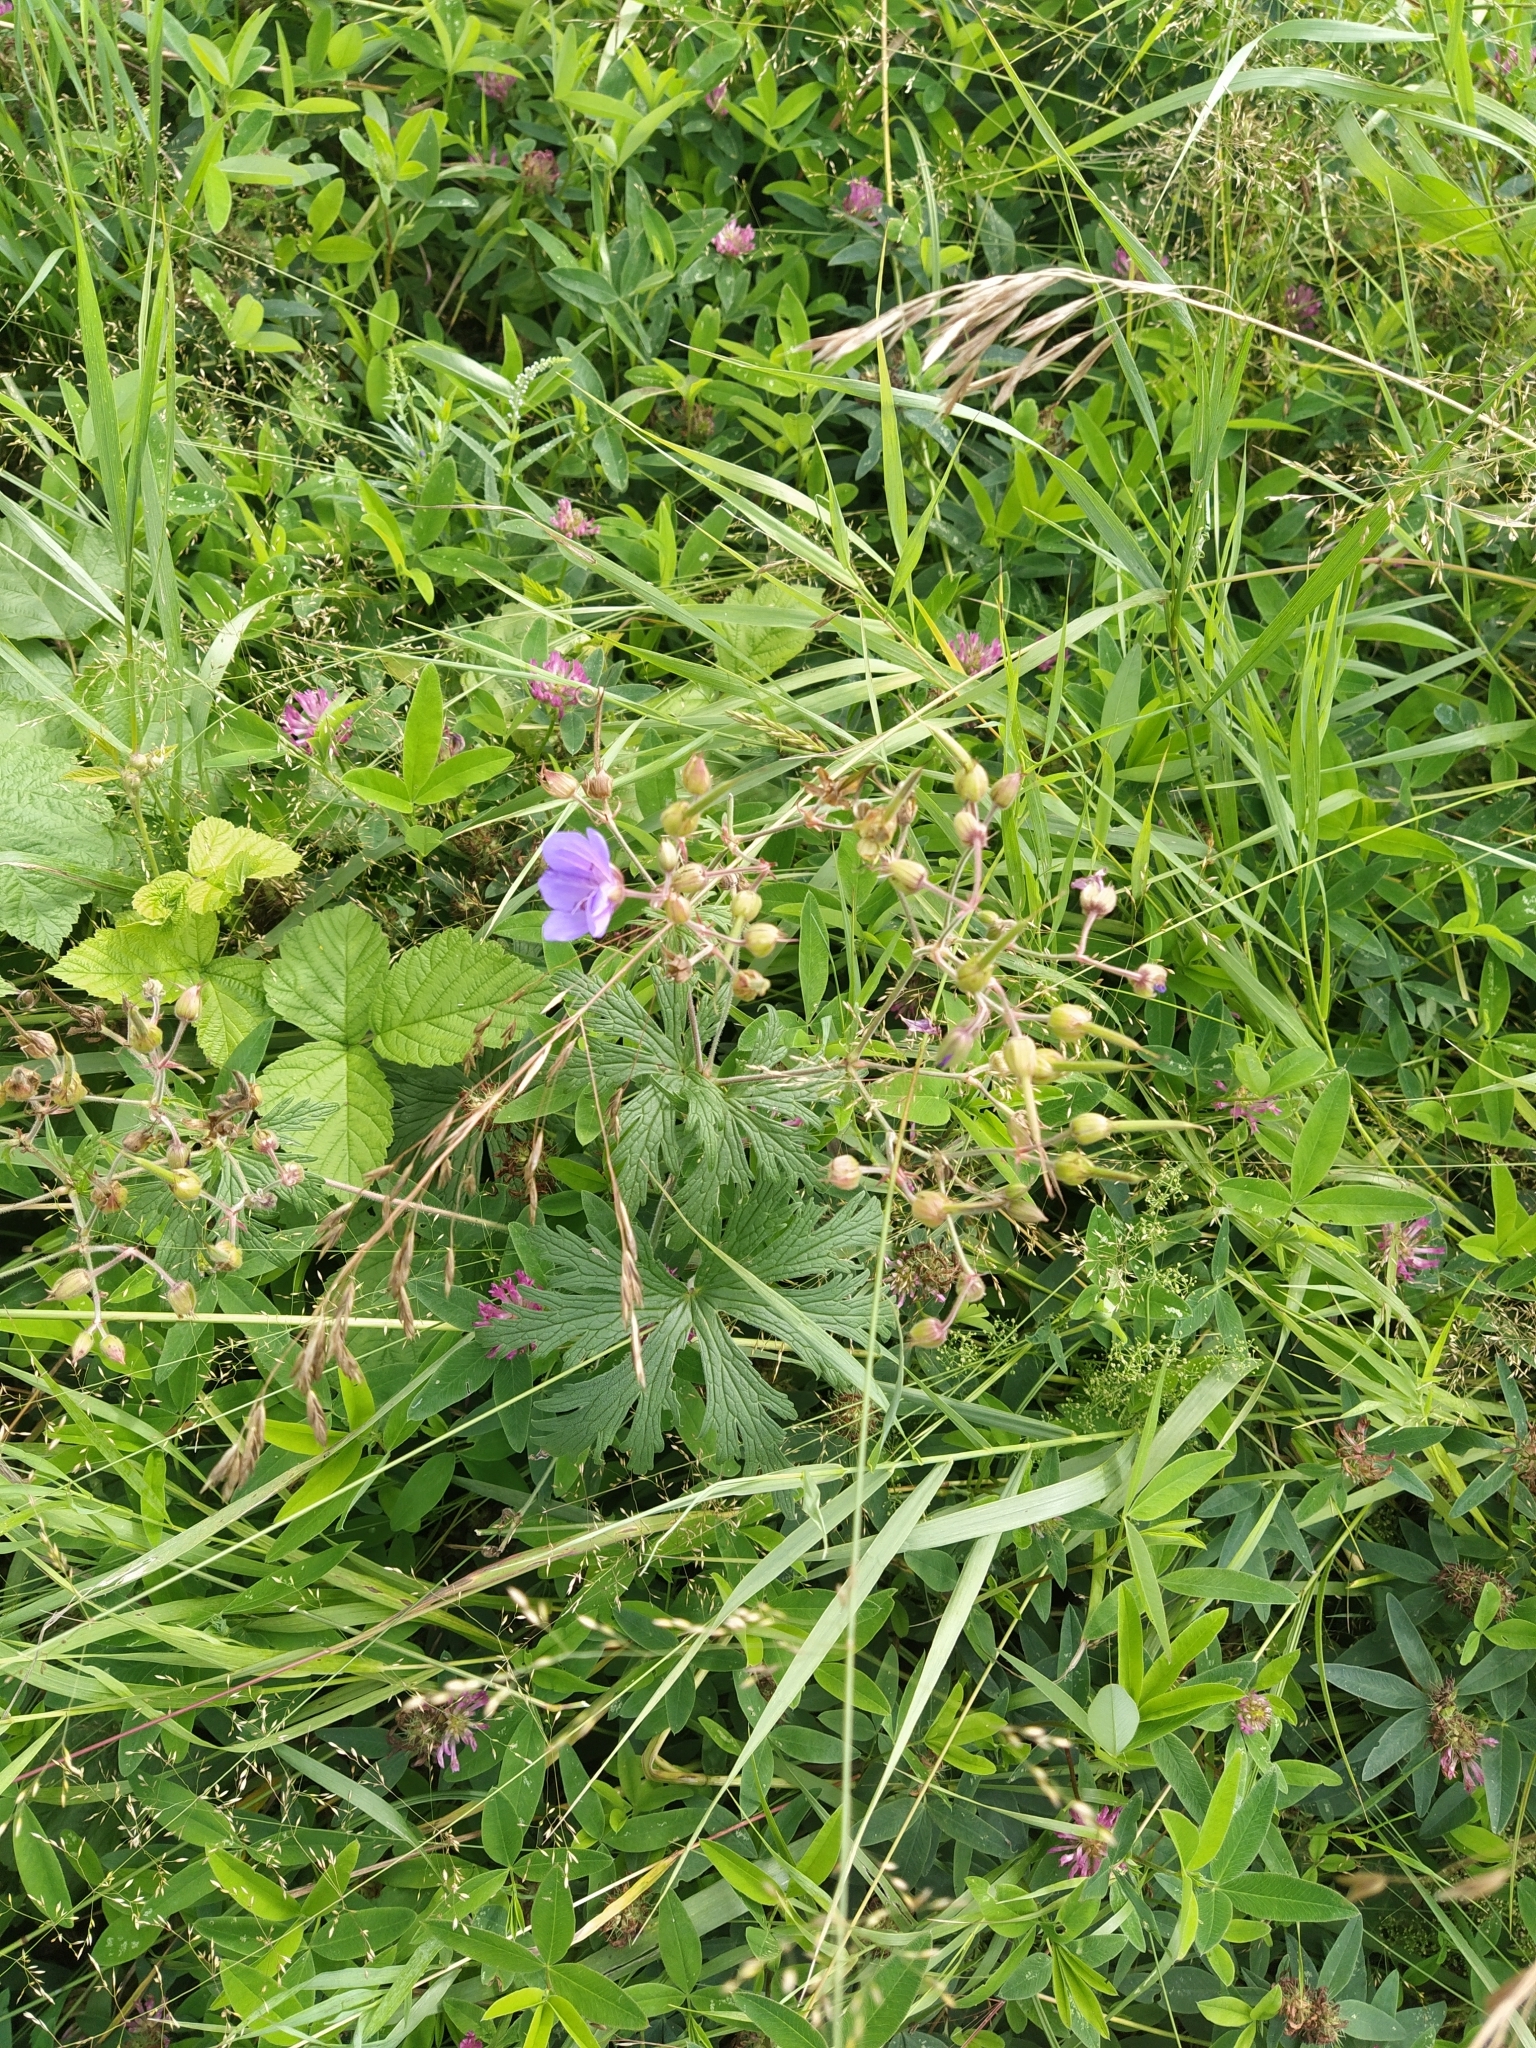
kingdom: Plantae
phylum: Tracheophyta
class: Magnoliopsida
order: Geraniales
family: Geraniaceae
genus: Geranium
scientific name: Geranium pratense
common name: Meadow crane's-bill
